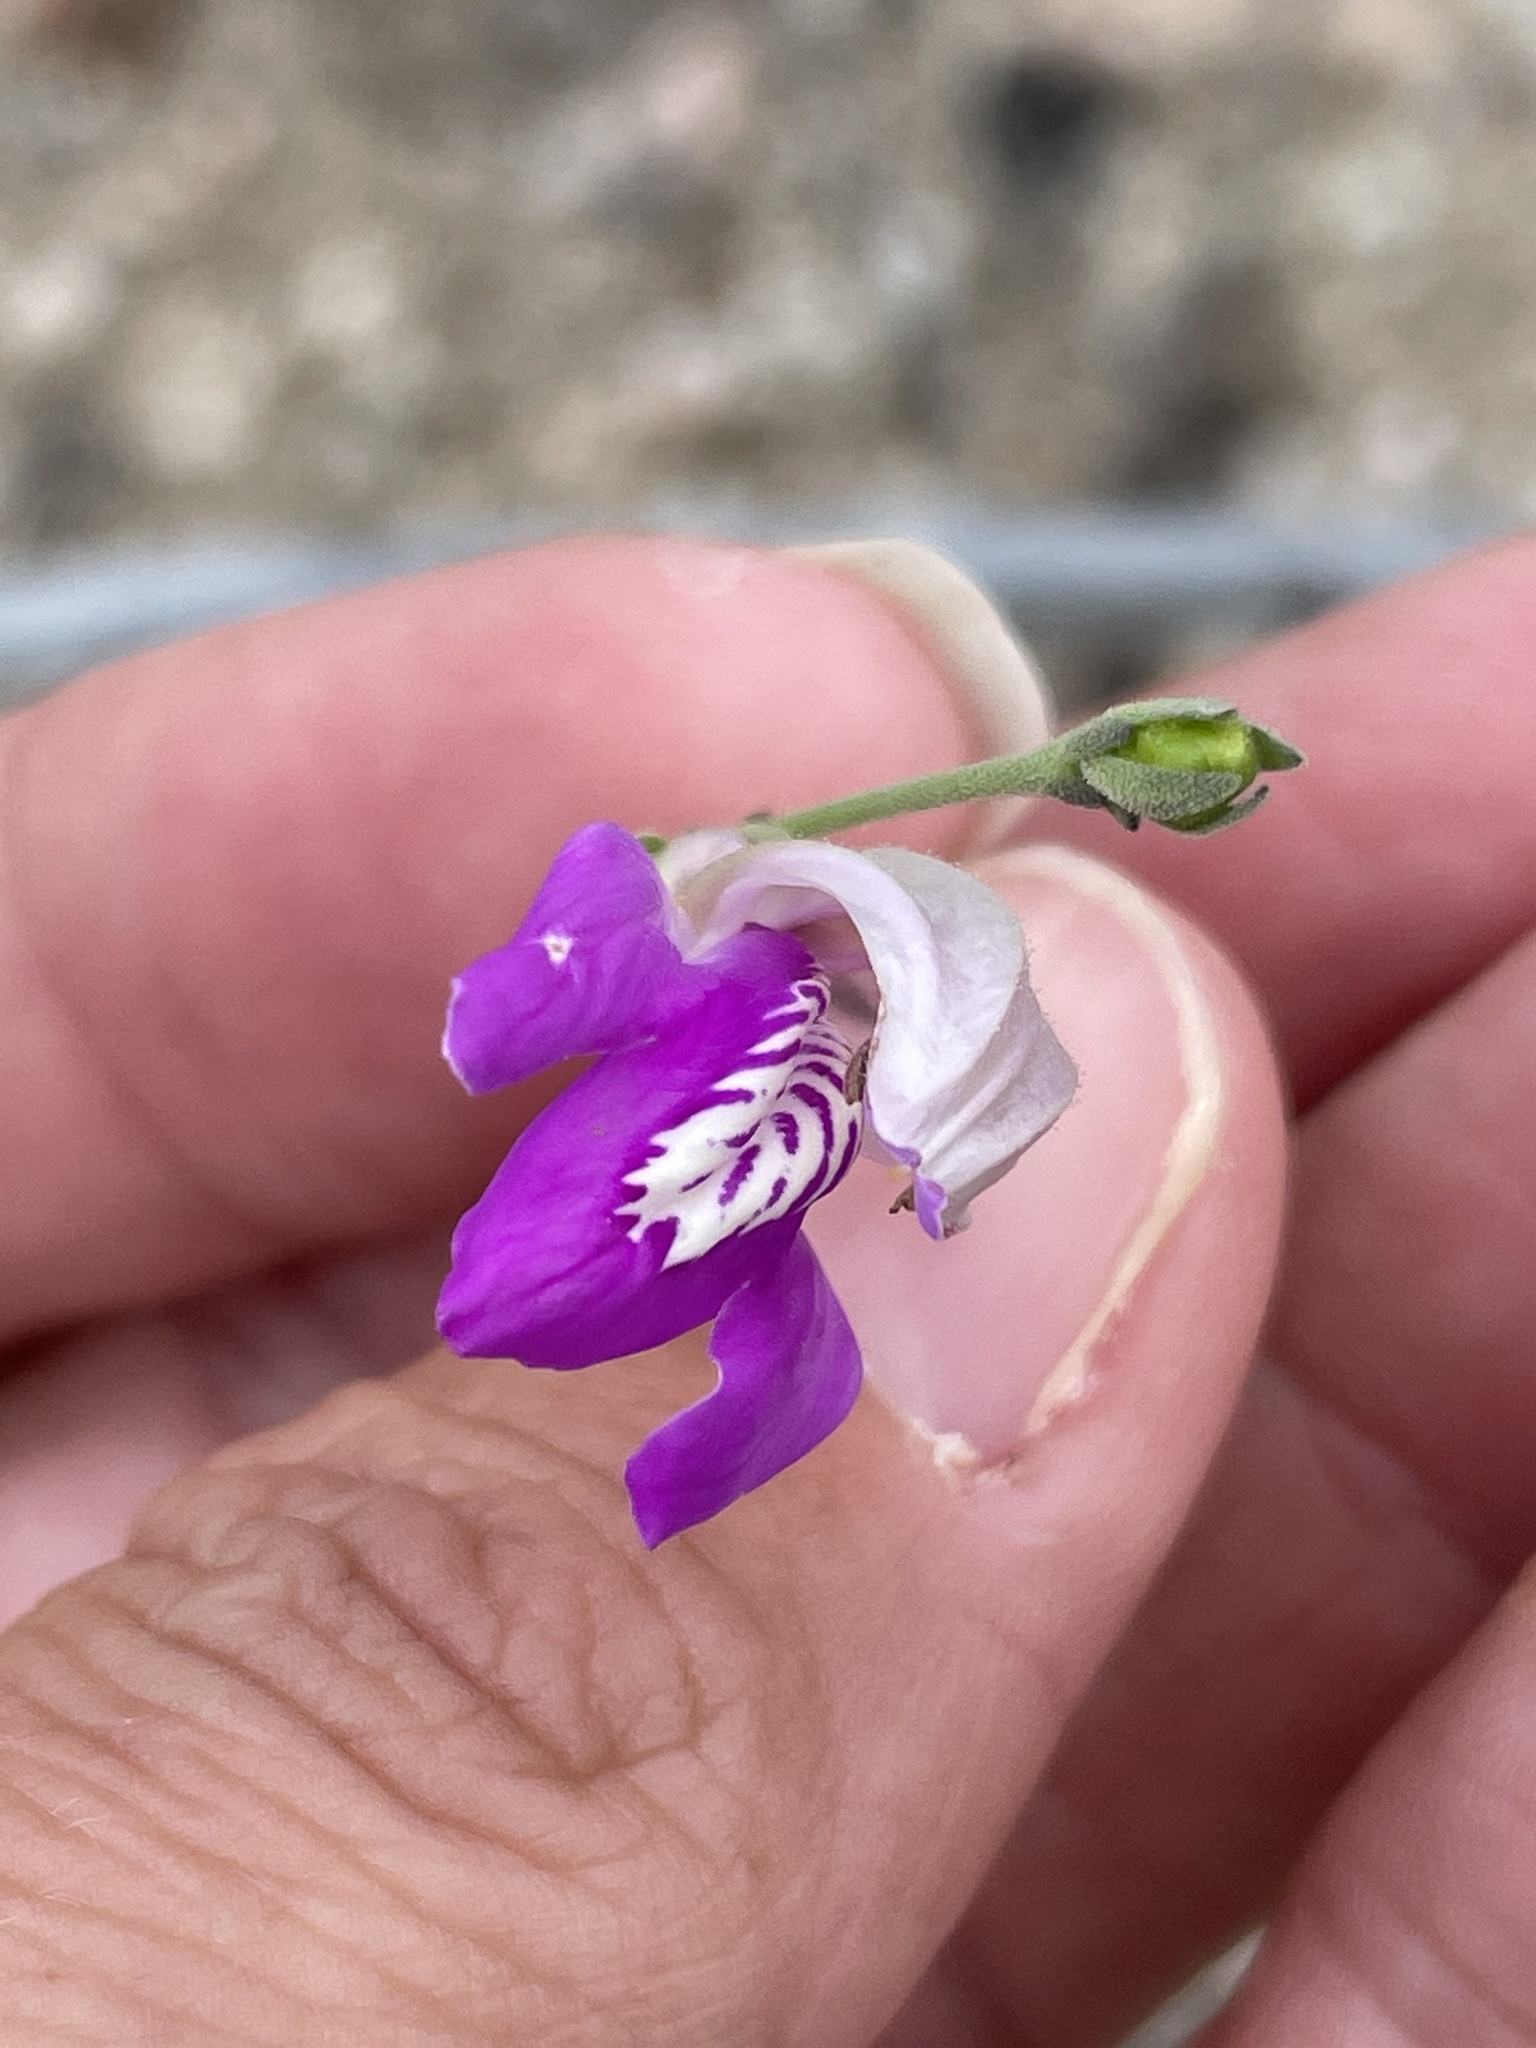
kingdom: Plantae
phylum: Tracheophyta
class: Magnoliopsida
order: Lamiales
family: Acanthaceae
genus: Justicia
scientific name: Justicia insolita
